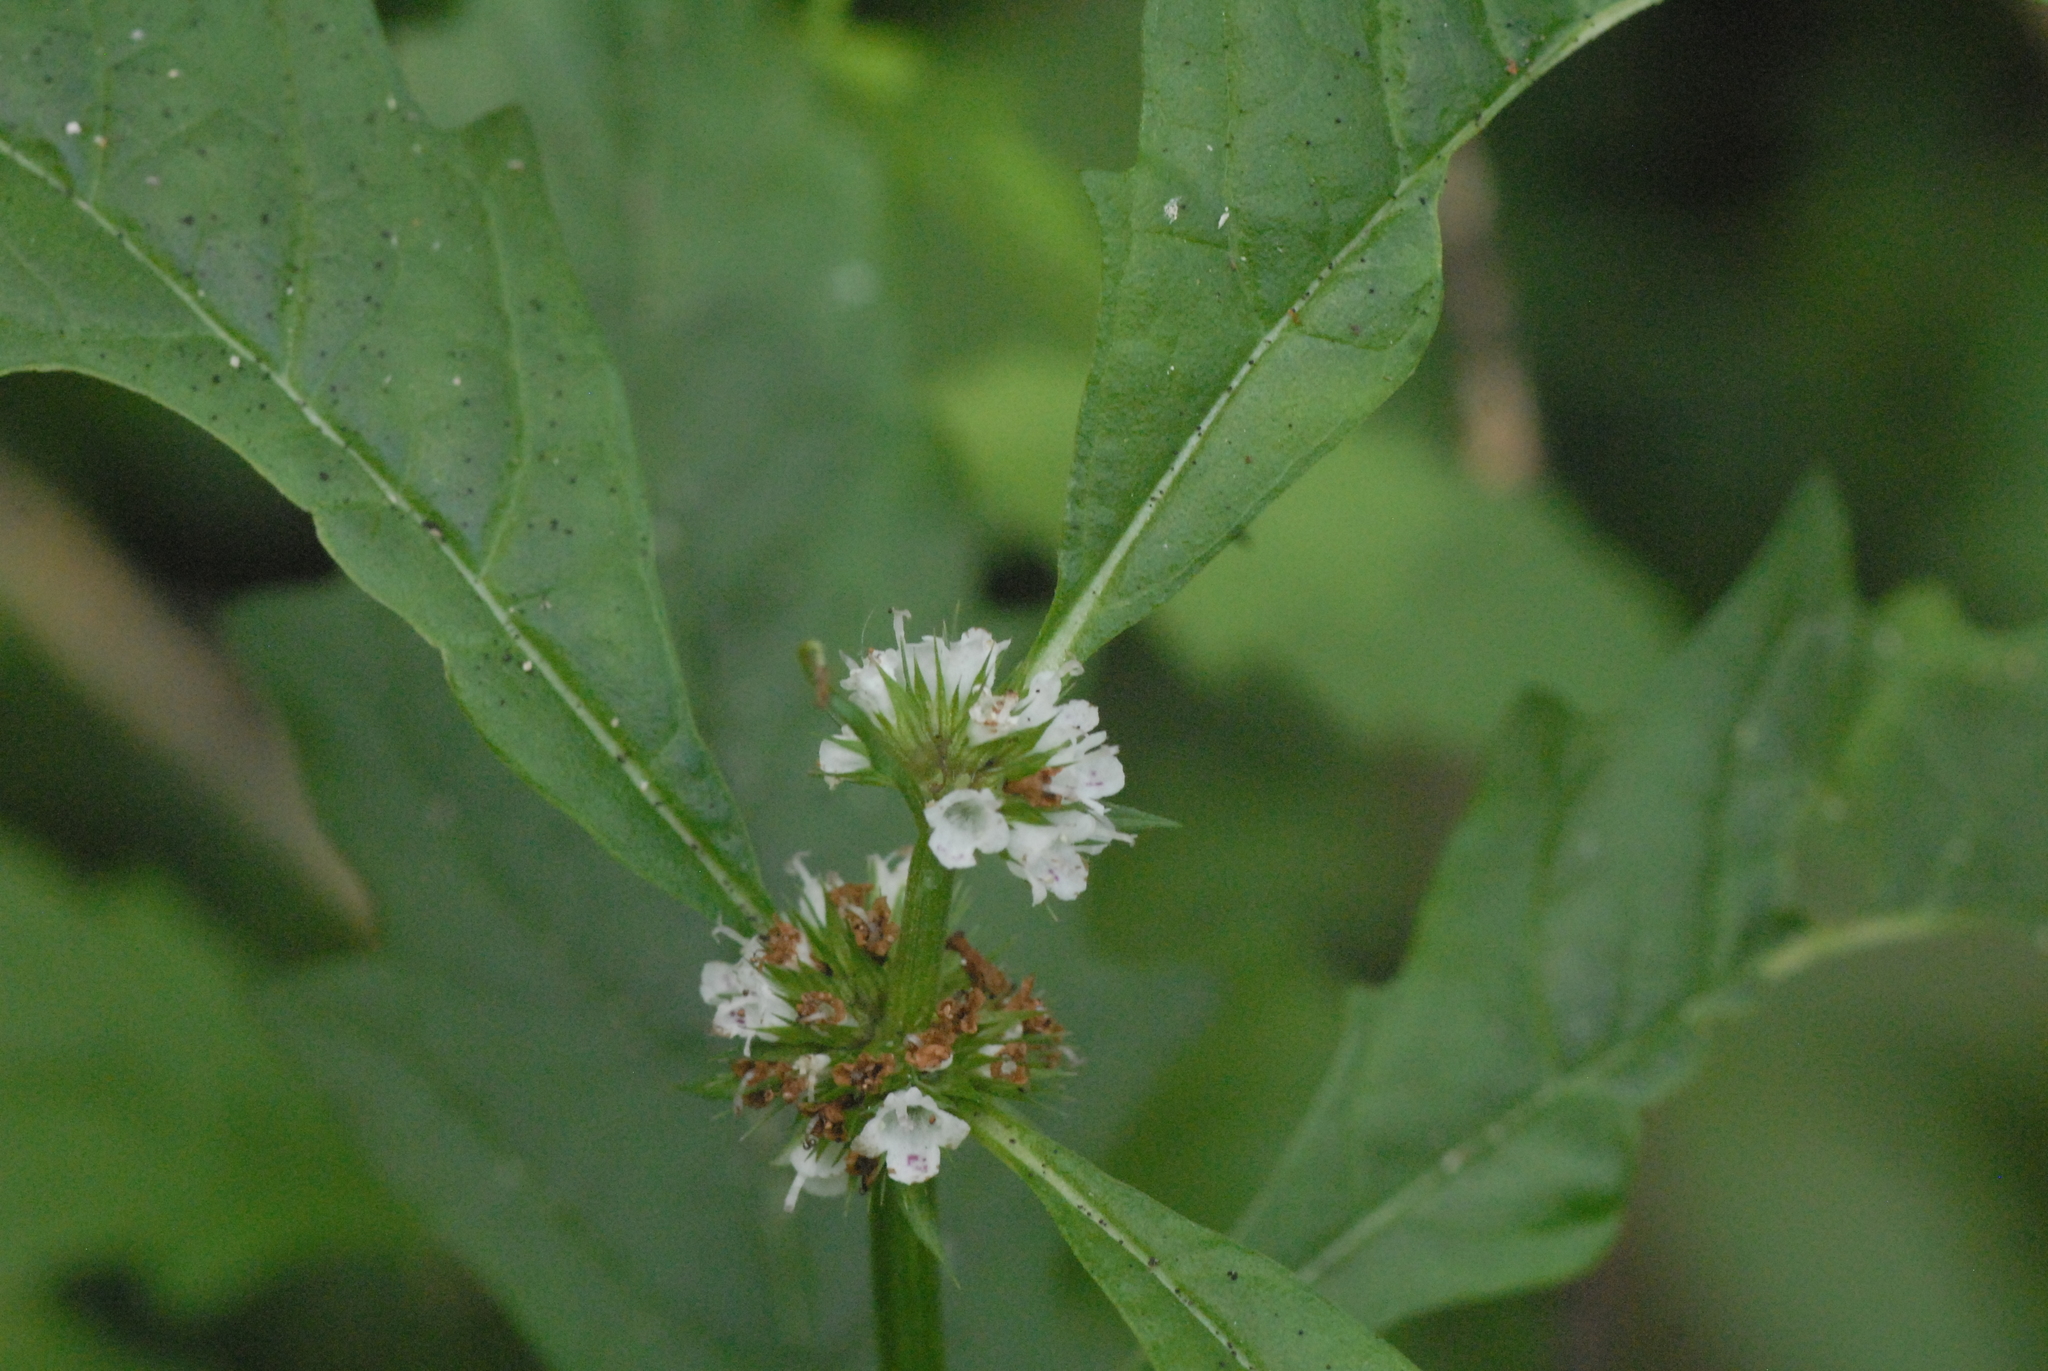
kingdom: Plantae
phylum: Tracheophyta
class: Magnoliopsida
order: Lamiales
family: Lamiaceae
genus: Lycopus
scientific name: Lycopus europaeus
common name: European bugleweed
